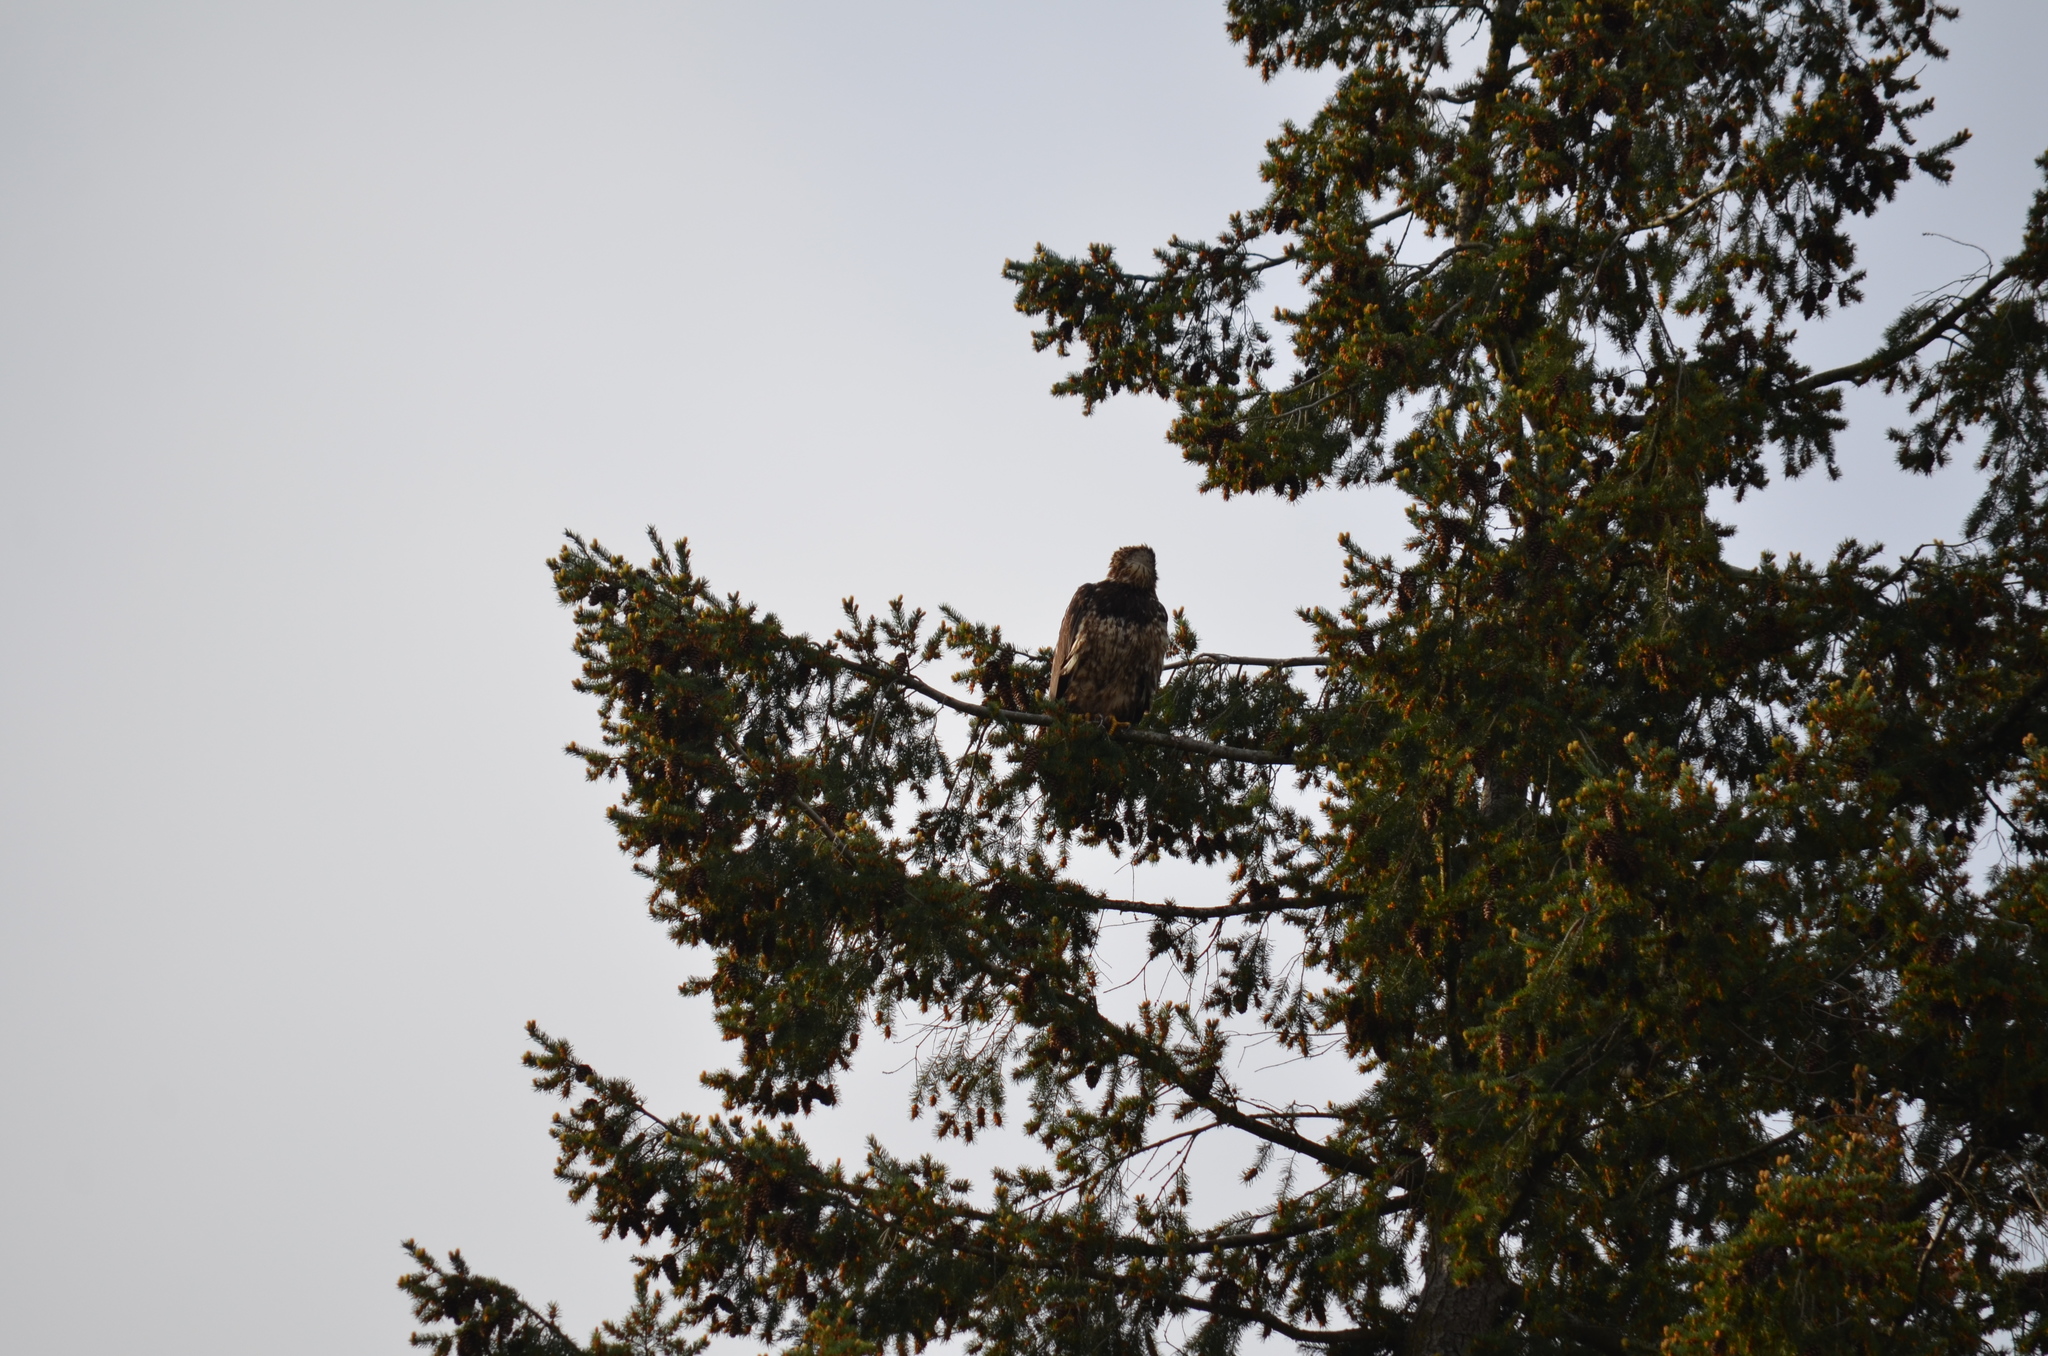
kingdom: Animalia
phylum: Chordata
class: Aves
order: Accipitriformes
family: Accipitridae
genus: Haliaeetus
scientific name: Haliaeetus leucocephalus
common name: Bald eagle
